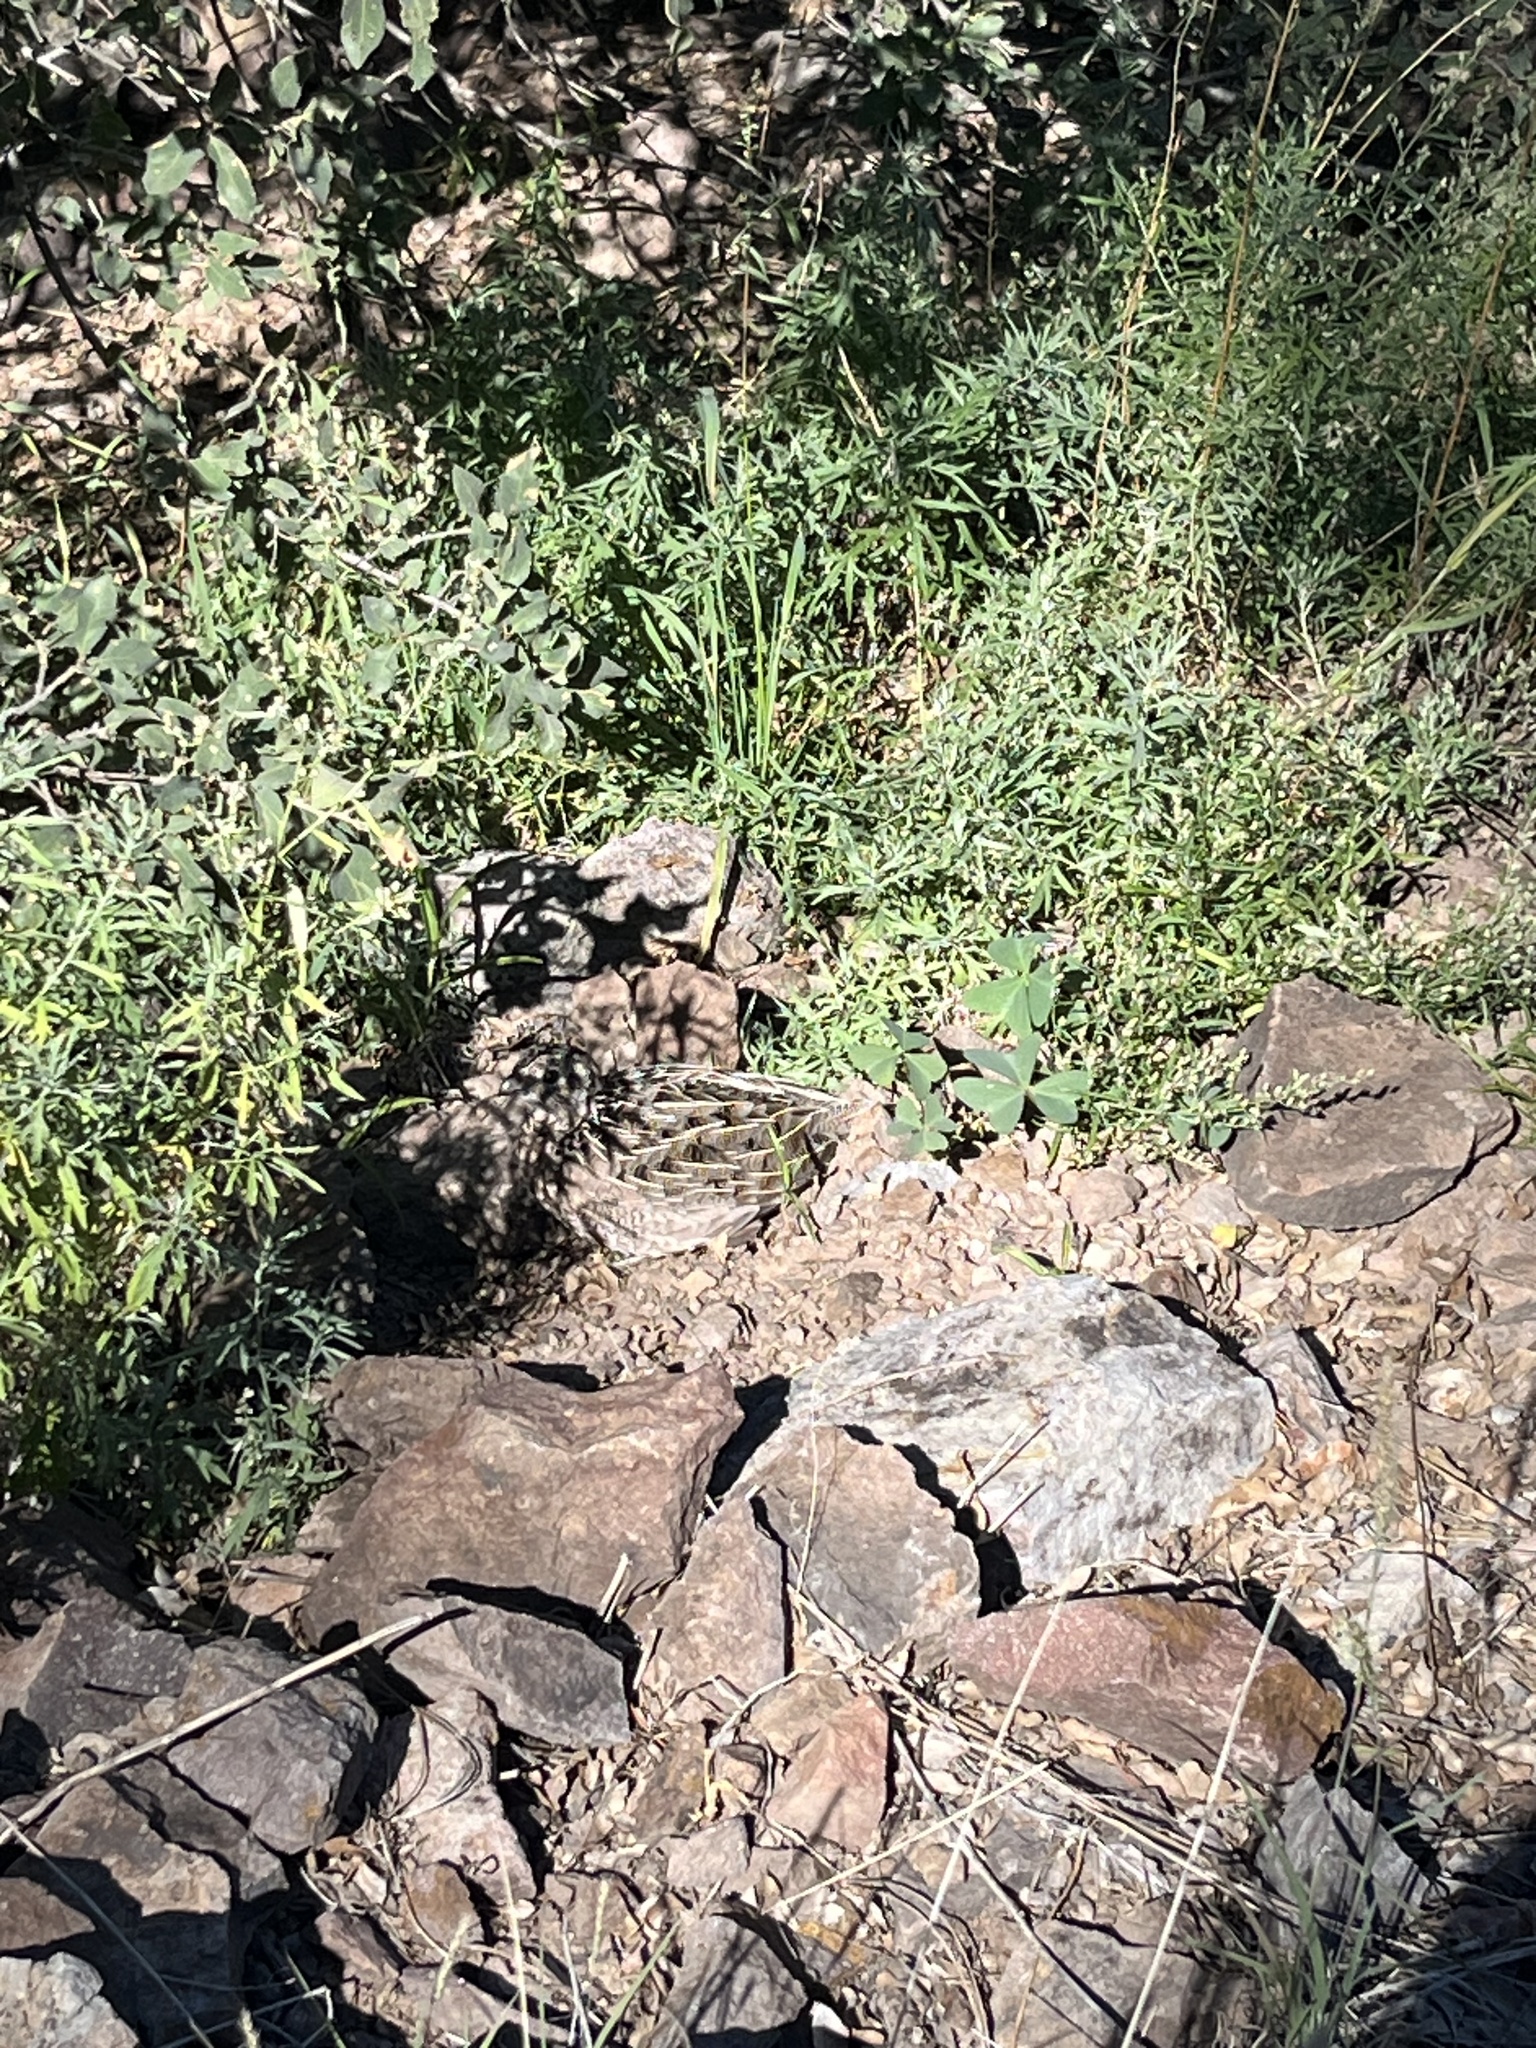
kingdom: Animalia
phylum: Chordata
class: Aves
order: Galliformes
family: Odontophoridae
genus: Cyrtonyx
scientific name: Cyrtonyx montezumae
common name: Montezuma quail
